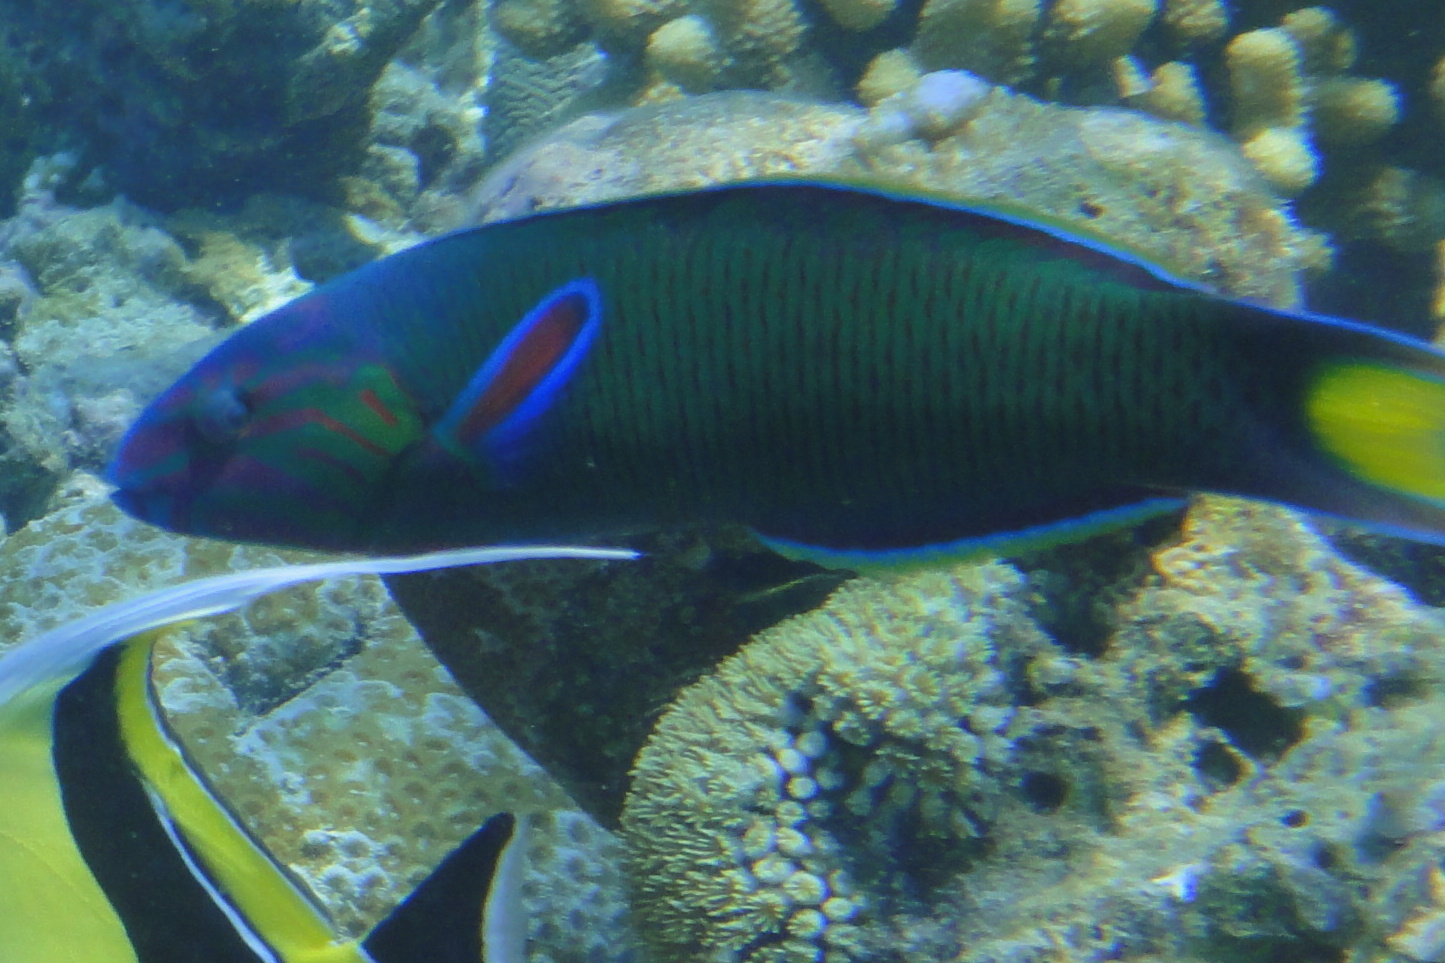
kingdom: Animalia
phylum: Chordata
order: Perciformes
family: Labridae
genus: Thalassoma
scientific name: Thalassoma lunare
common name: Blue wrasse
